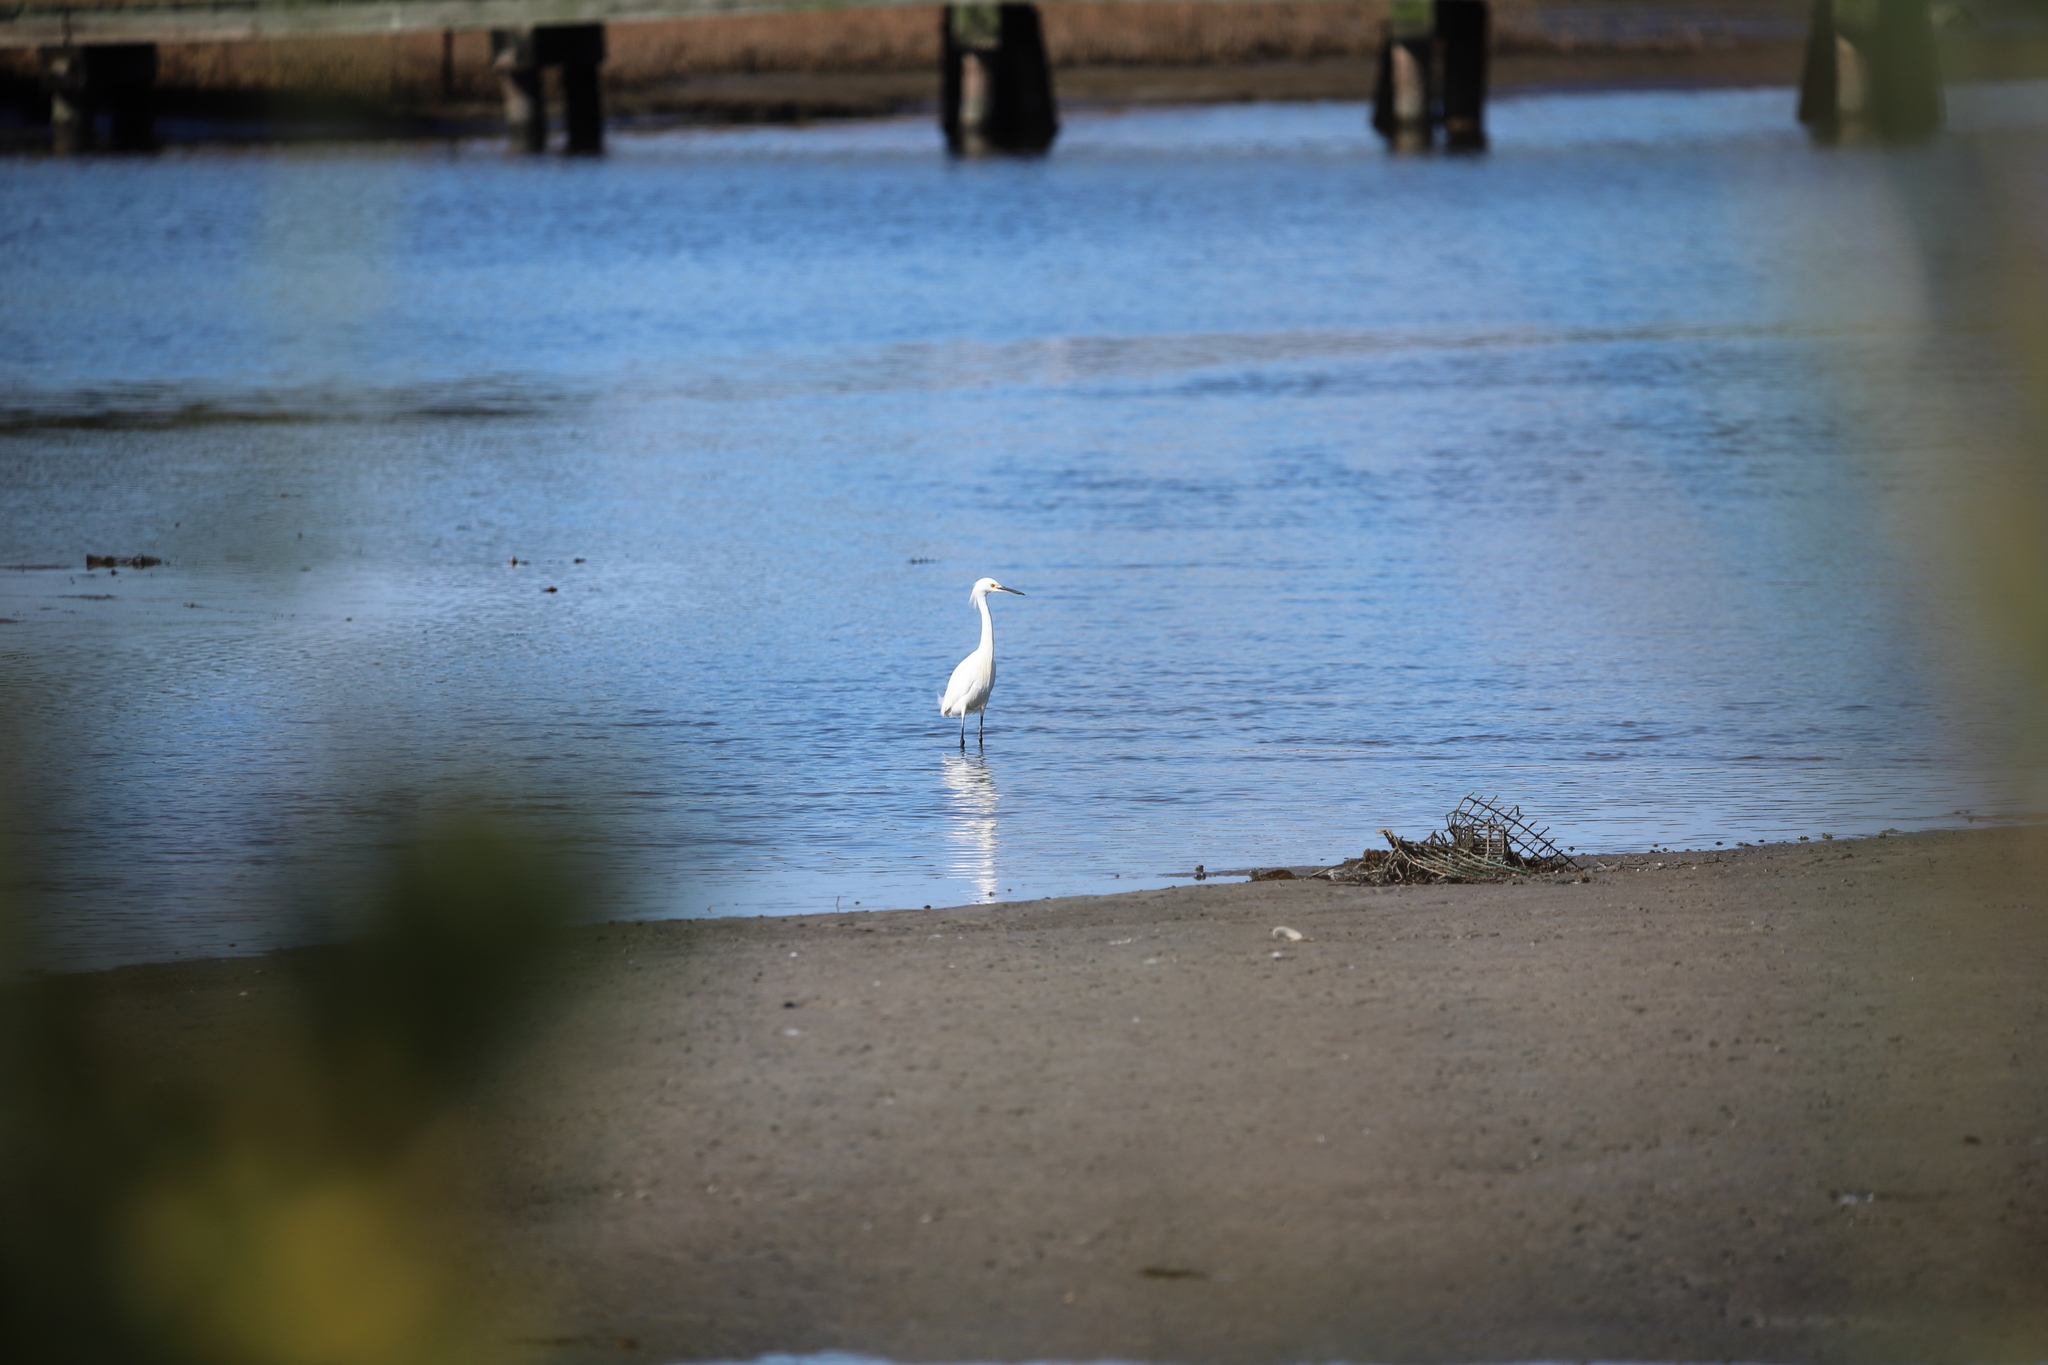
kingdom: Animalia
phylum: Chordata
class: Aves
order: Pelecaniformes
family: Ardeidae
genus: Egretta
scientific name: Egretta thula
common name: Snowy egret
